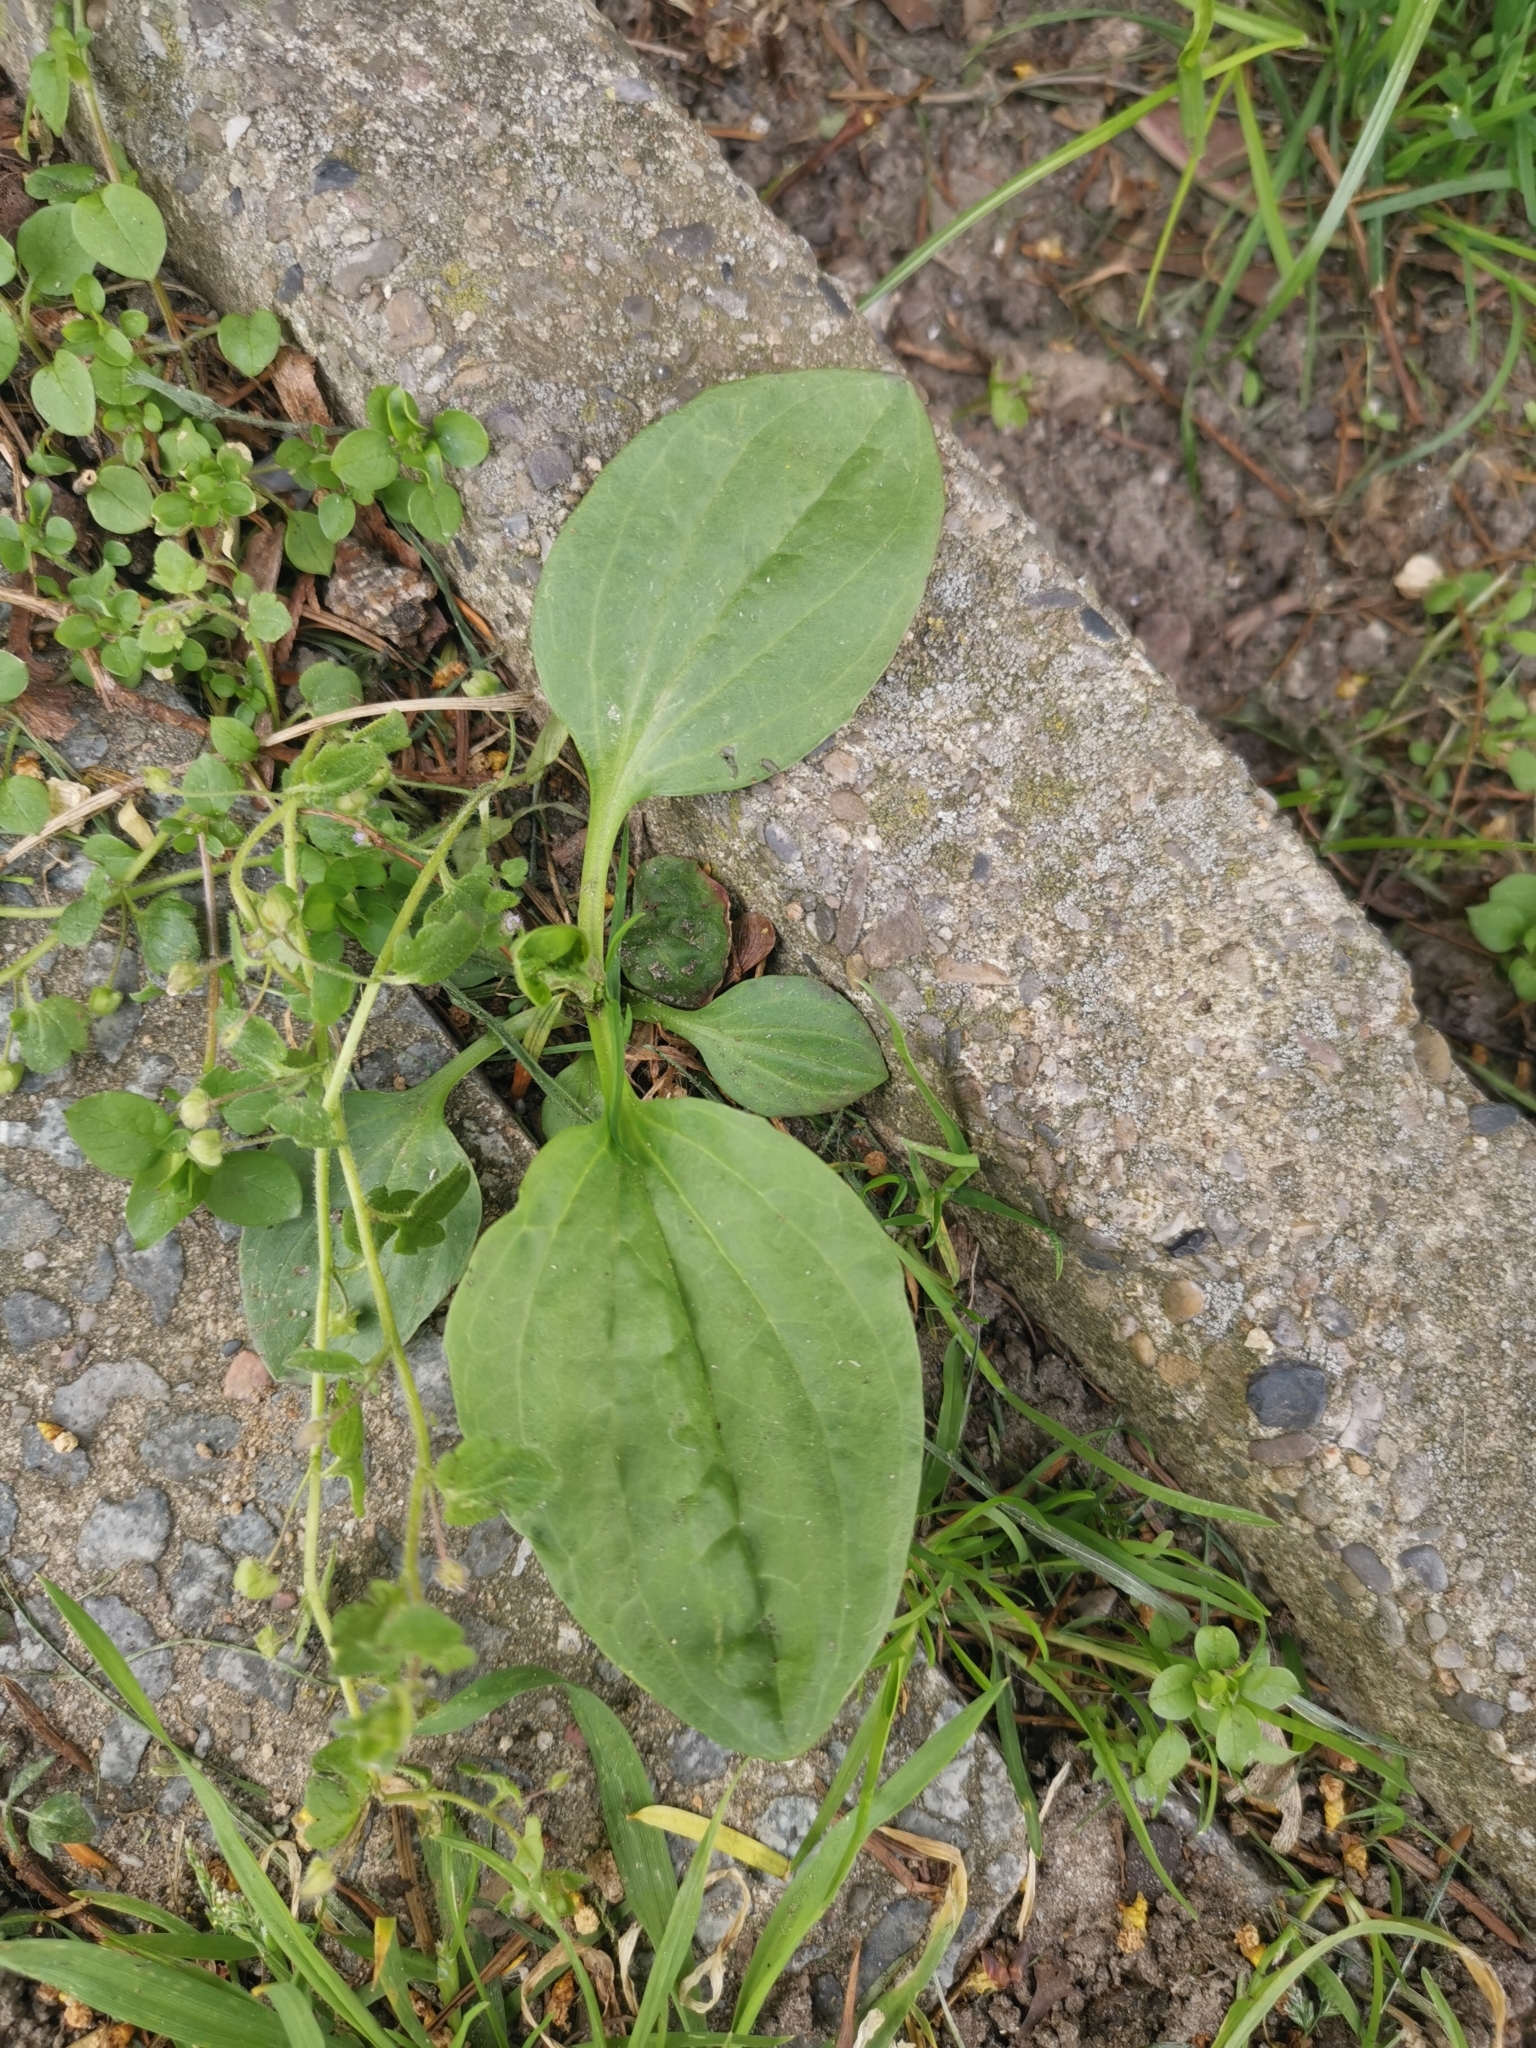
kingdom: Plantae
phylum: Tracheophyta
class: Magnoliopsida
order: Lamiales
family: Plantaginaceae
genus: Plantago
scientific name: Plantago major
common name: Common plantain
